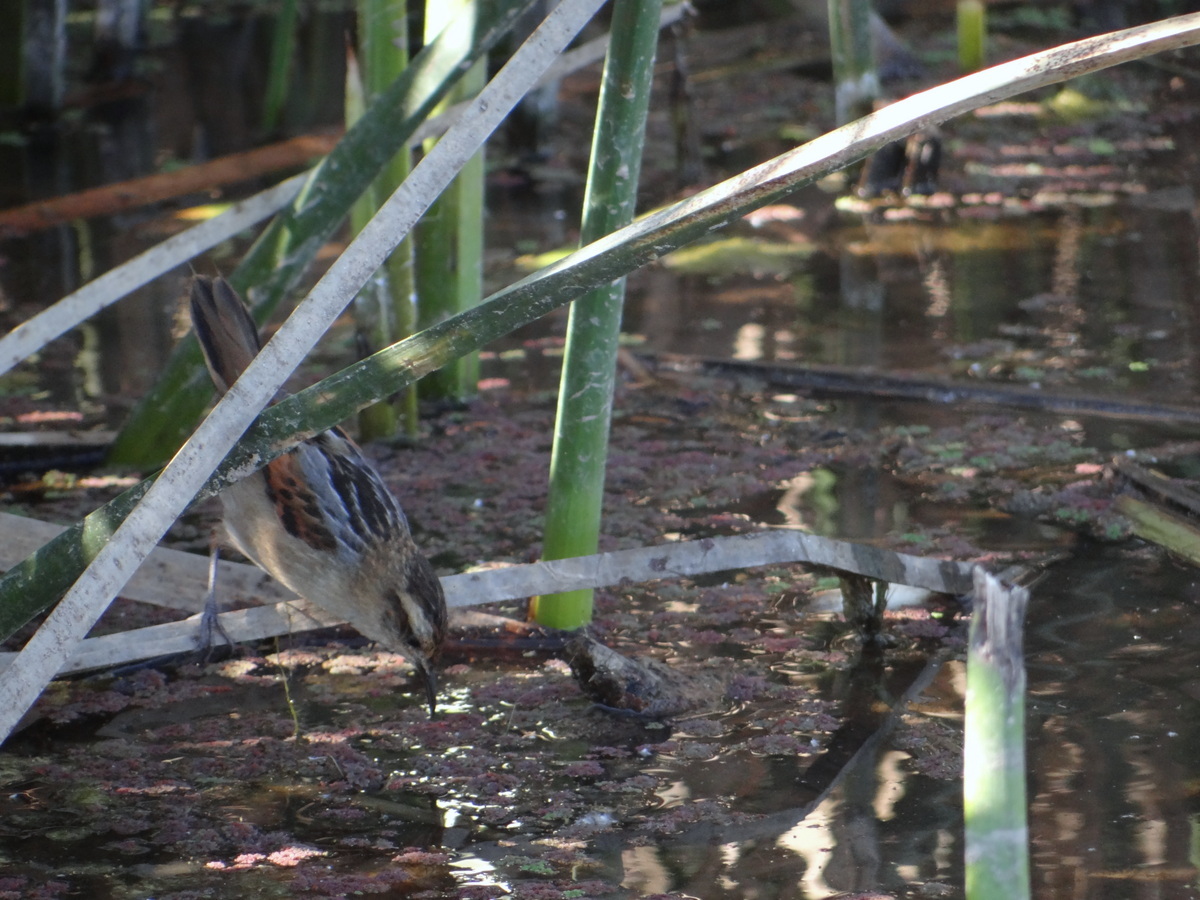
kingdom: Animalia
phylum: Chordata
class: Aves
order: Passeriformes
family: Furnariidae
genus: Phleocryptes
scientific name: Phleocryptes melanops
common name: Wren-like rushbird
